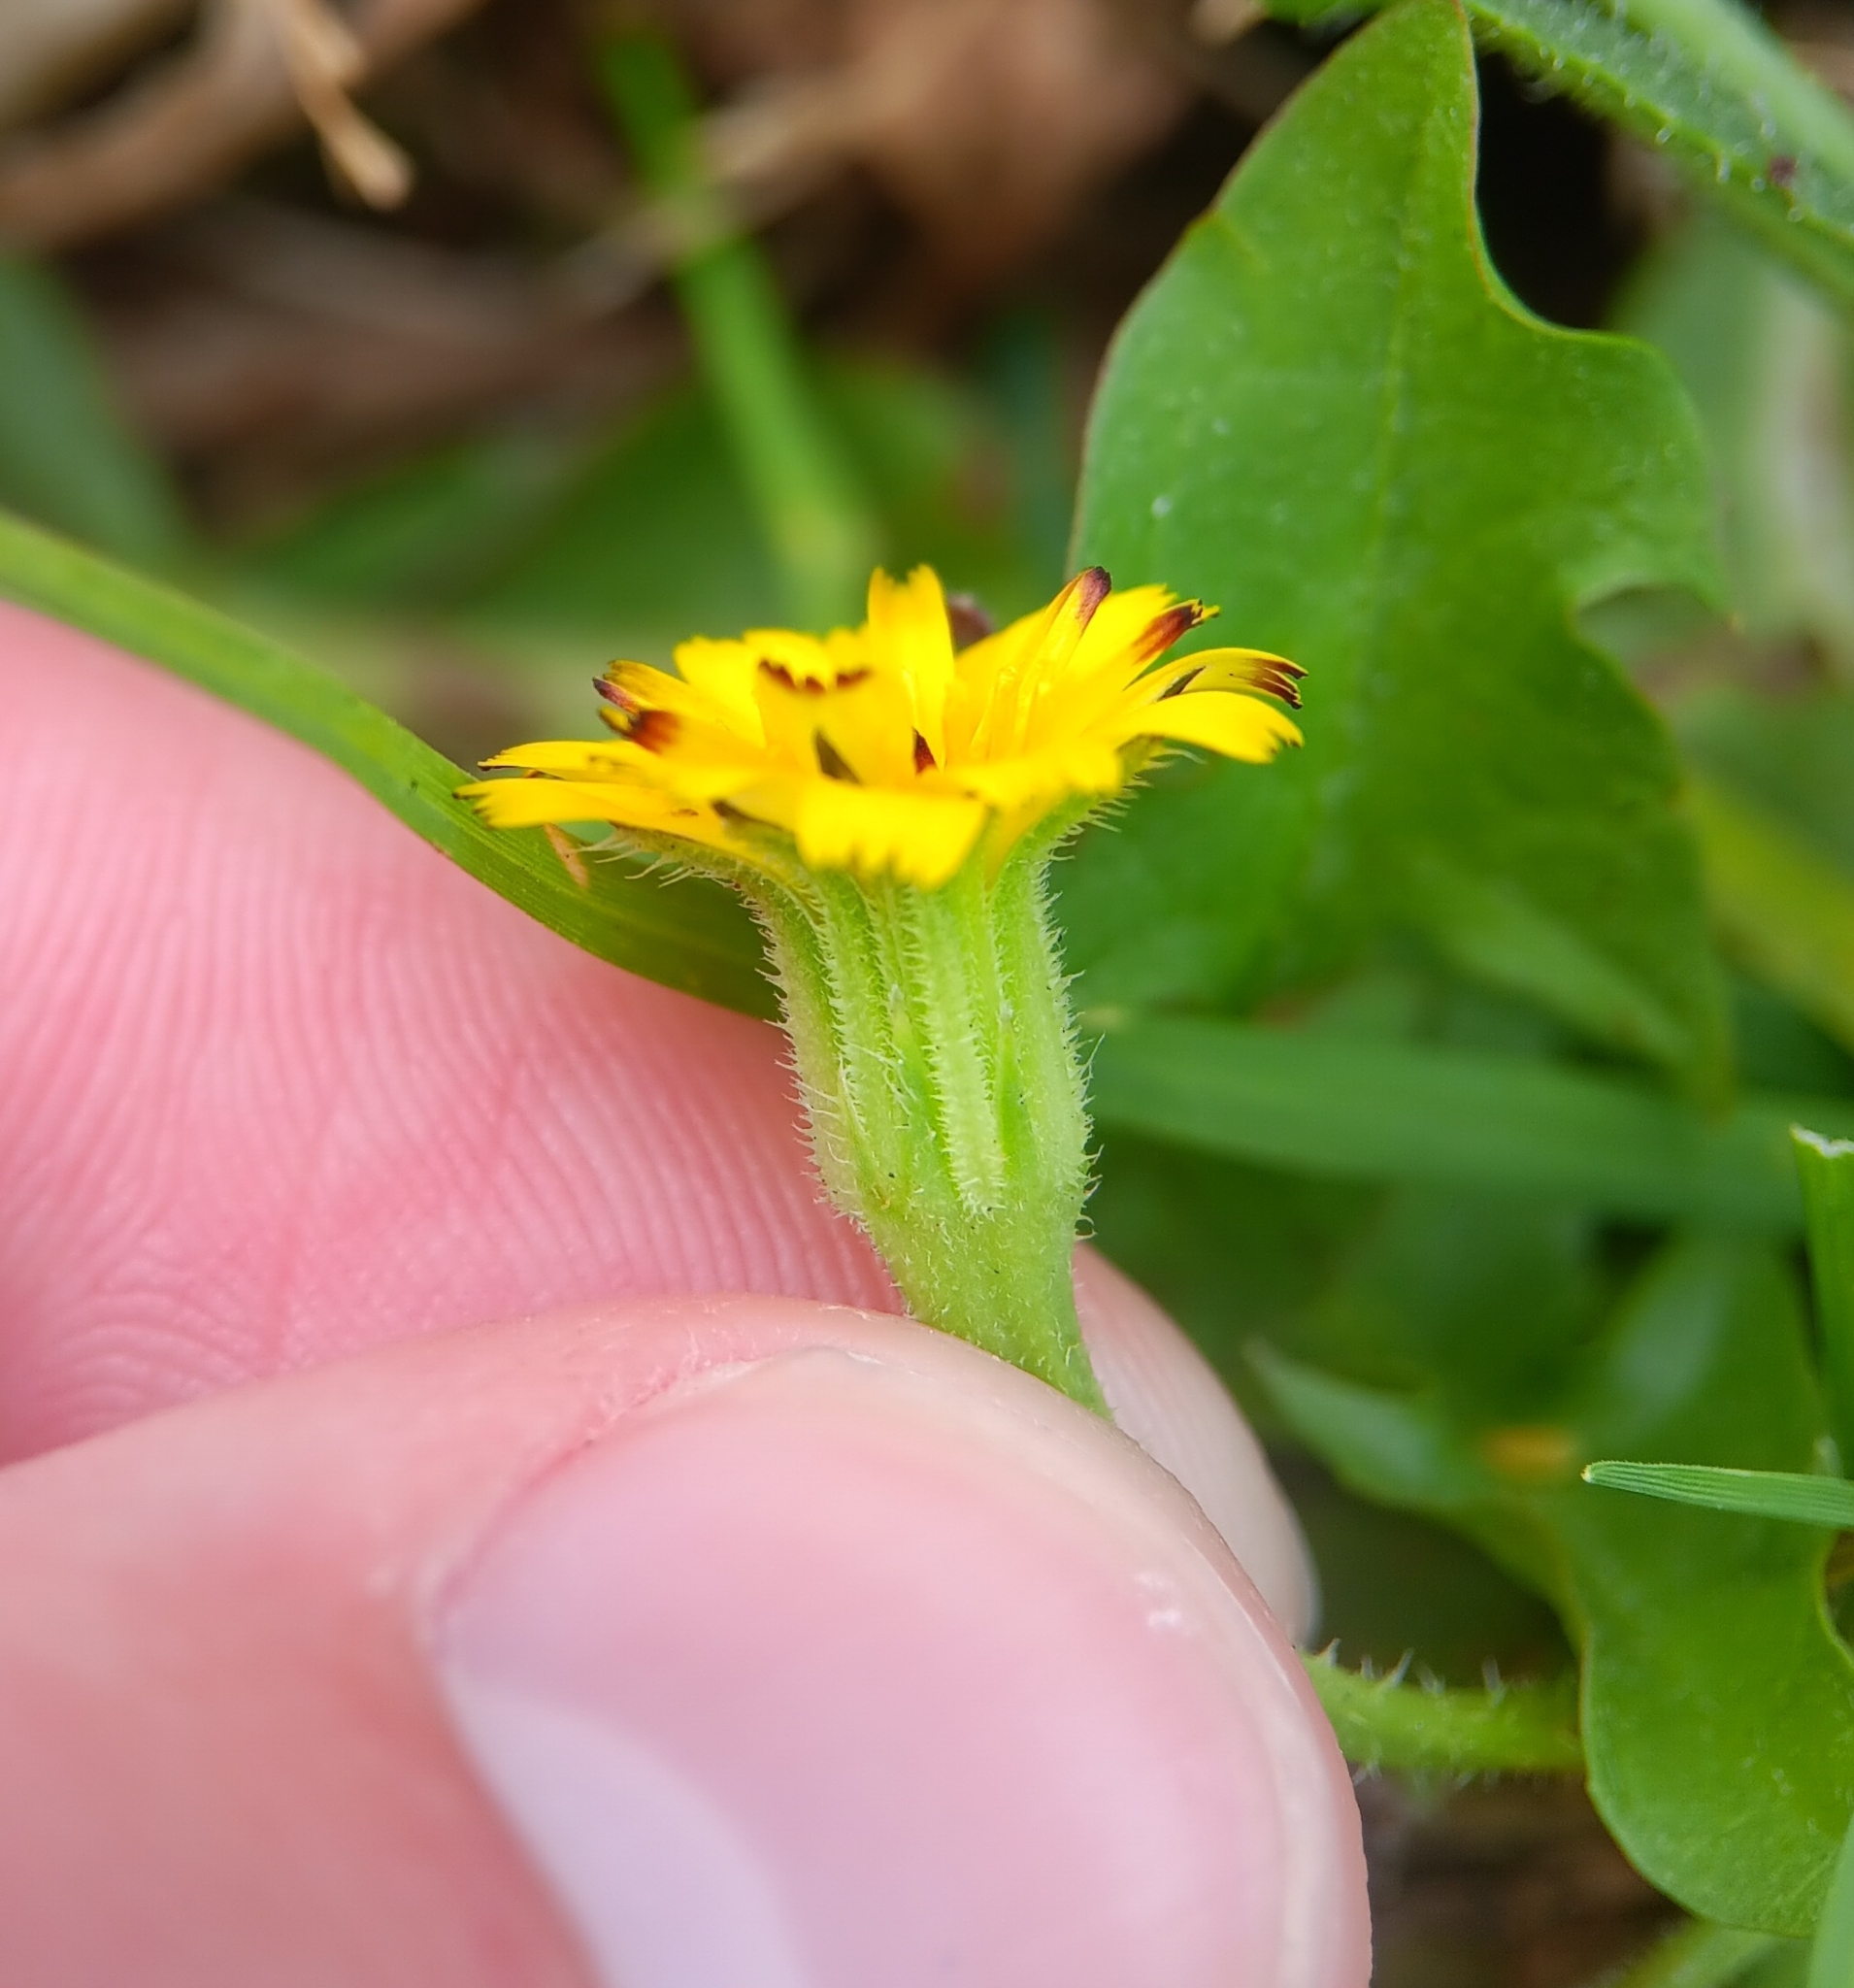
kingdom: Plantae
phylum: Tracheophyta
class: Magnoliopsida
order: Asterales
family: Asteraceae
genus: Hedypnois
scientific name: Hedypnois rhagadioloides
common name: Cretan weed
